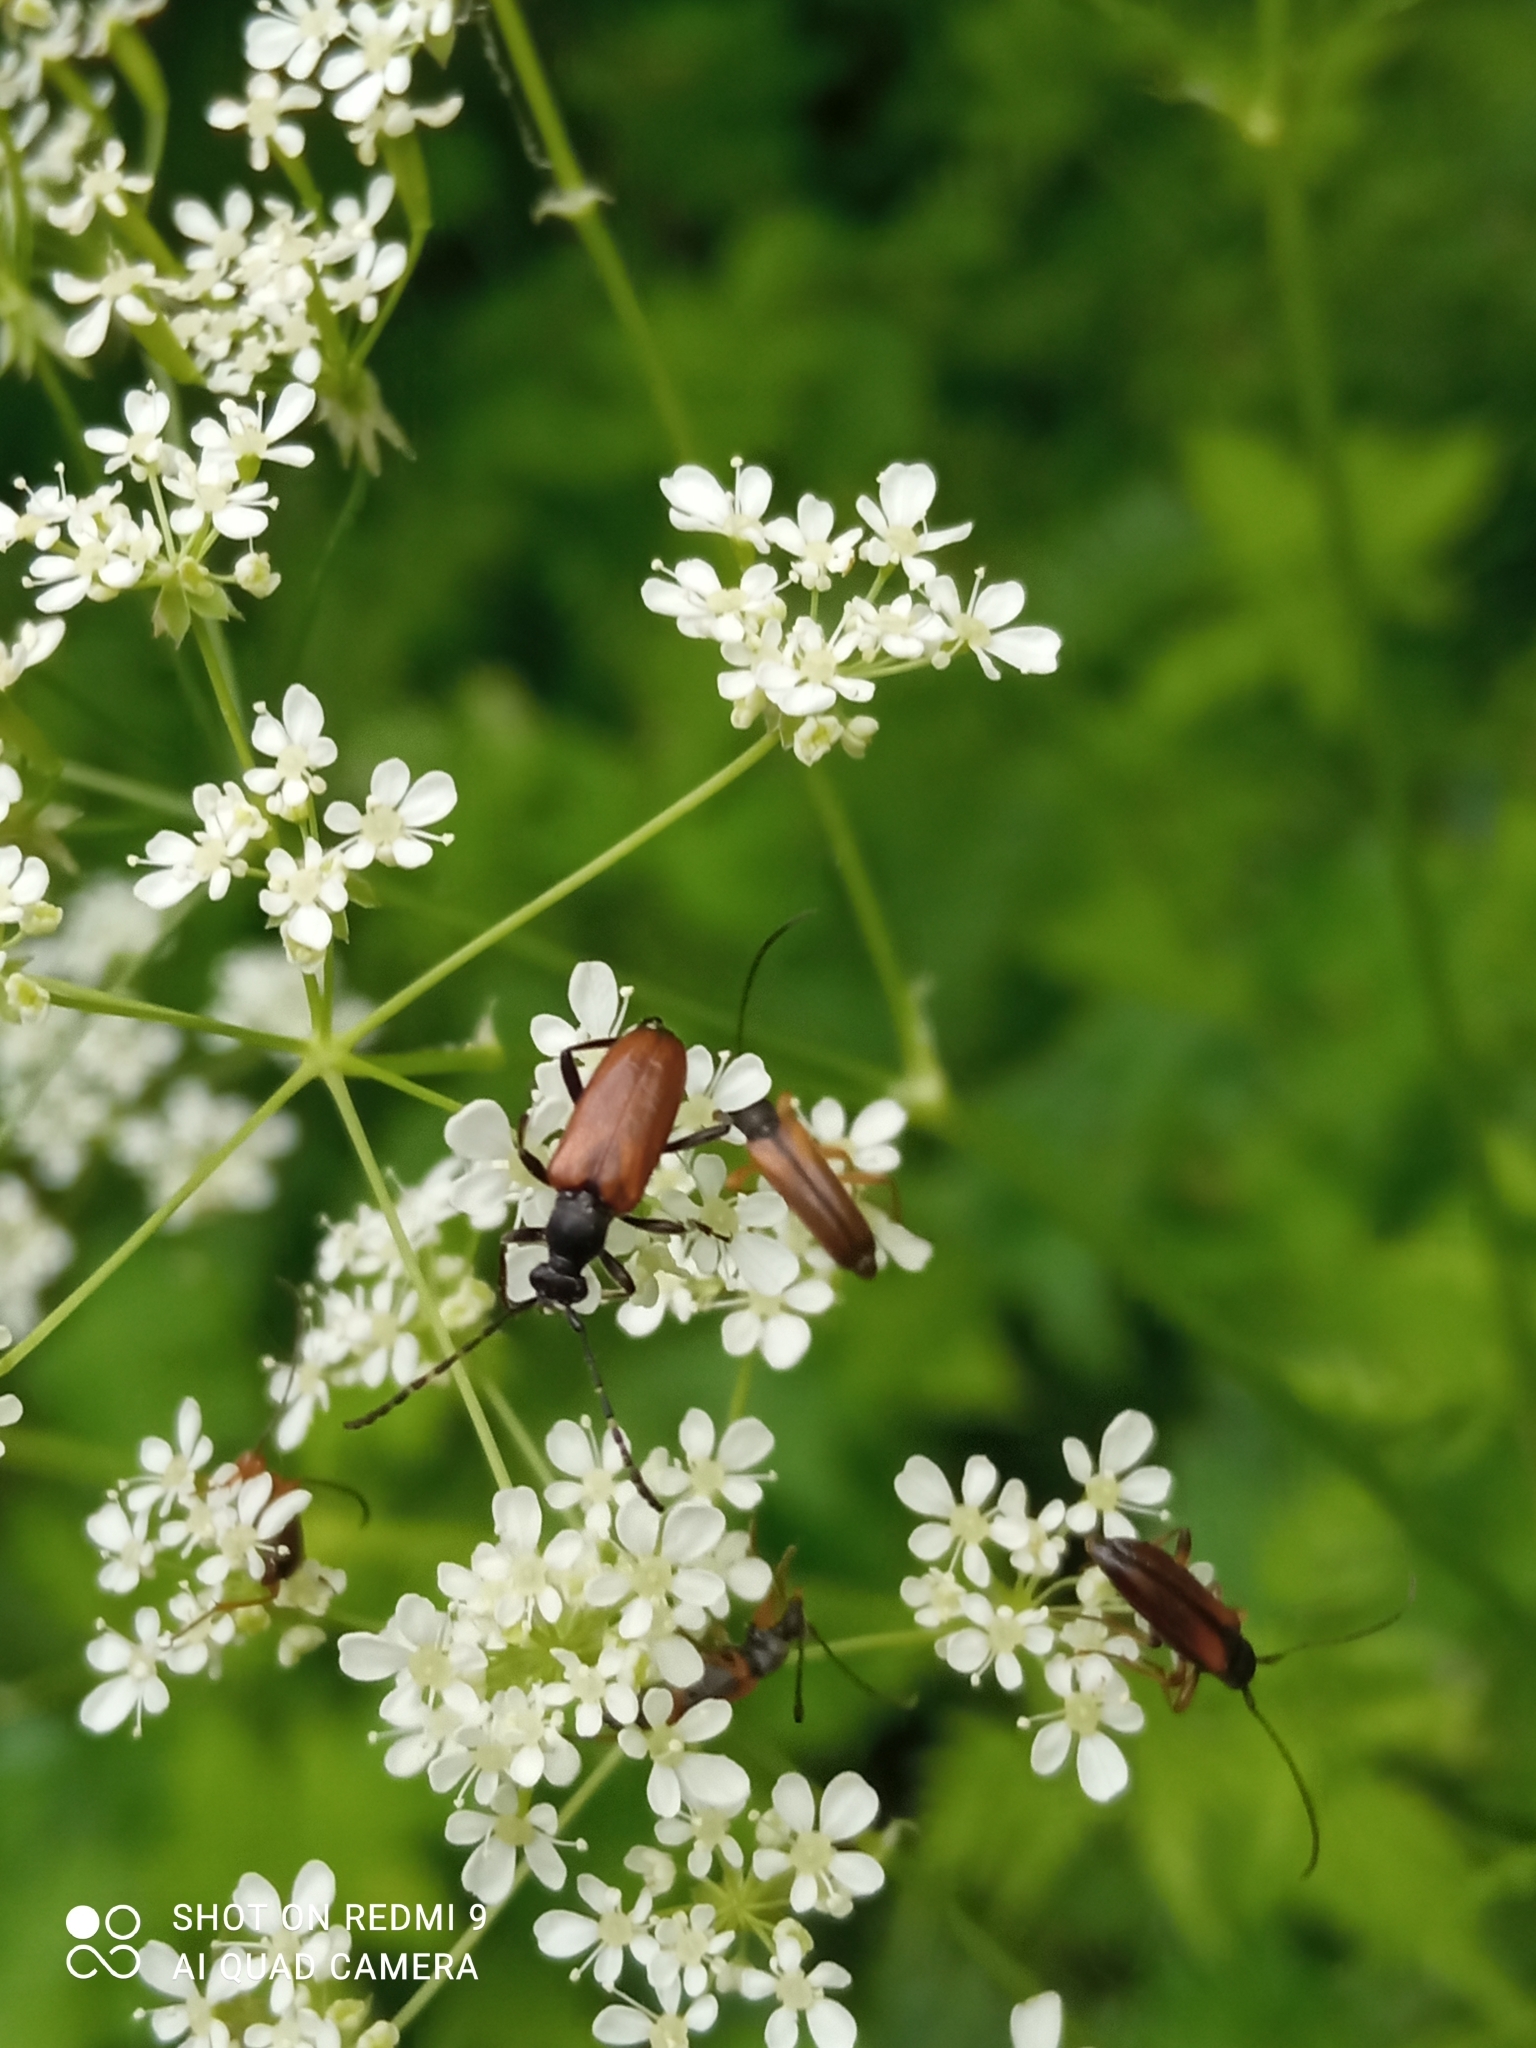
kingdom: Animalia
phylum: Arthropoda
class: Insecta
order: Coleoptera
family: Cerambycidae
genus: Paracorymbia
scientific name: Paracorymbia maculicornis
